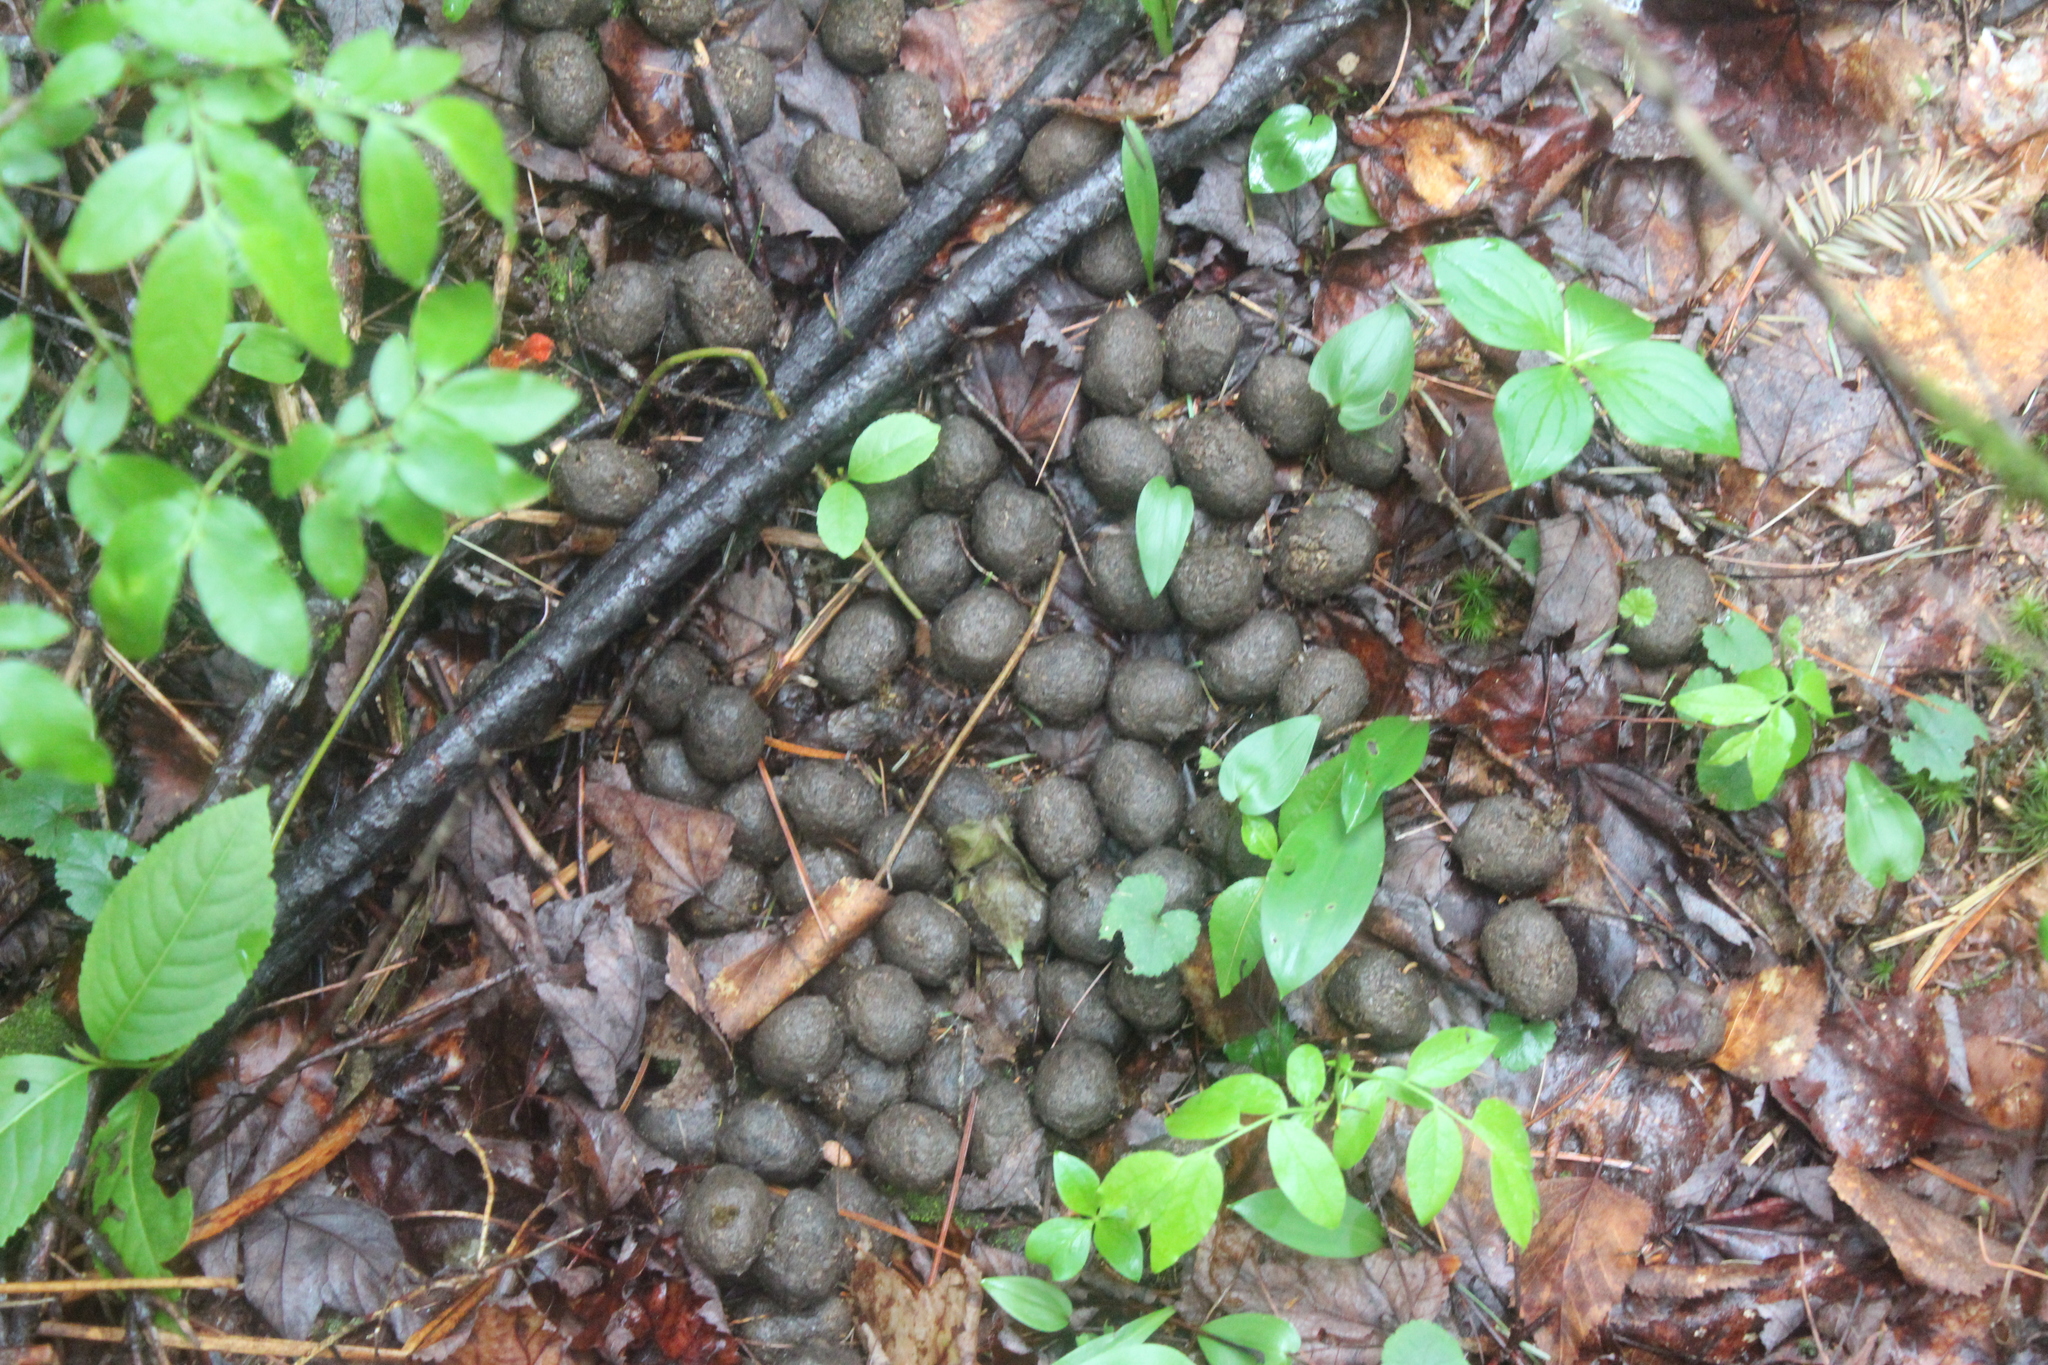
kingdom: Animalia
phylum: Chordata
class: Mammalia
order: Artiodactyla
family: Cervidae
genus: Alces
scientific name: Alces alces
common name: Moose
